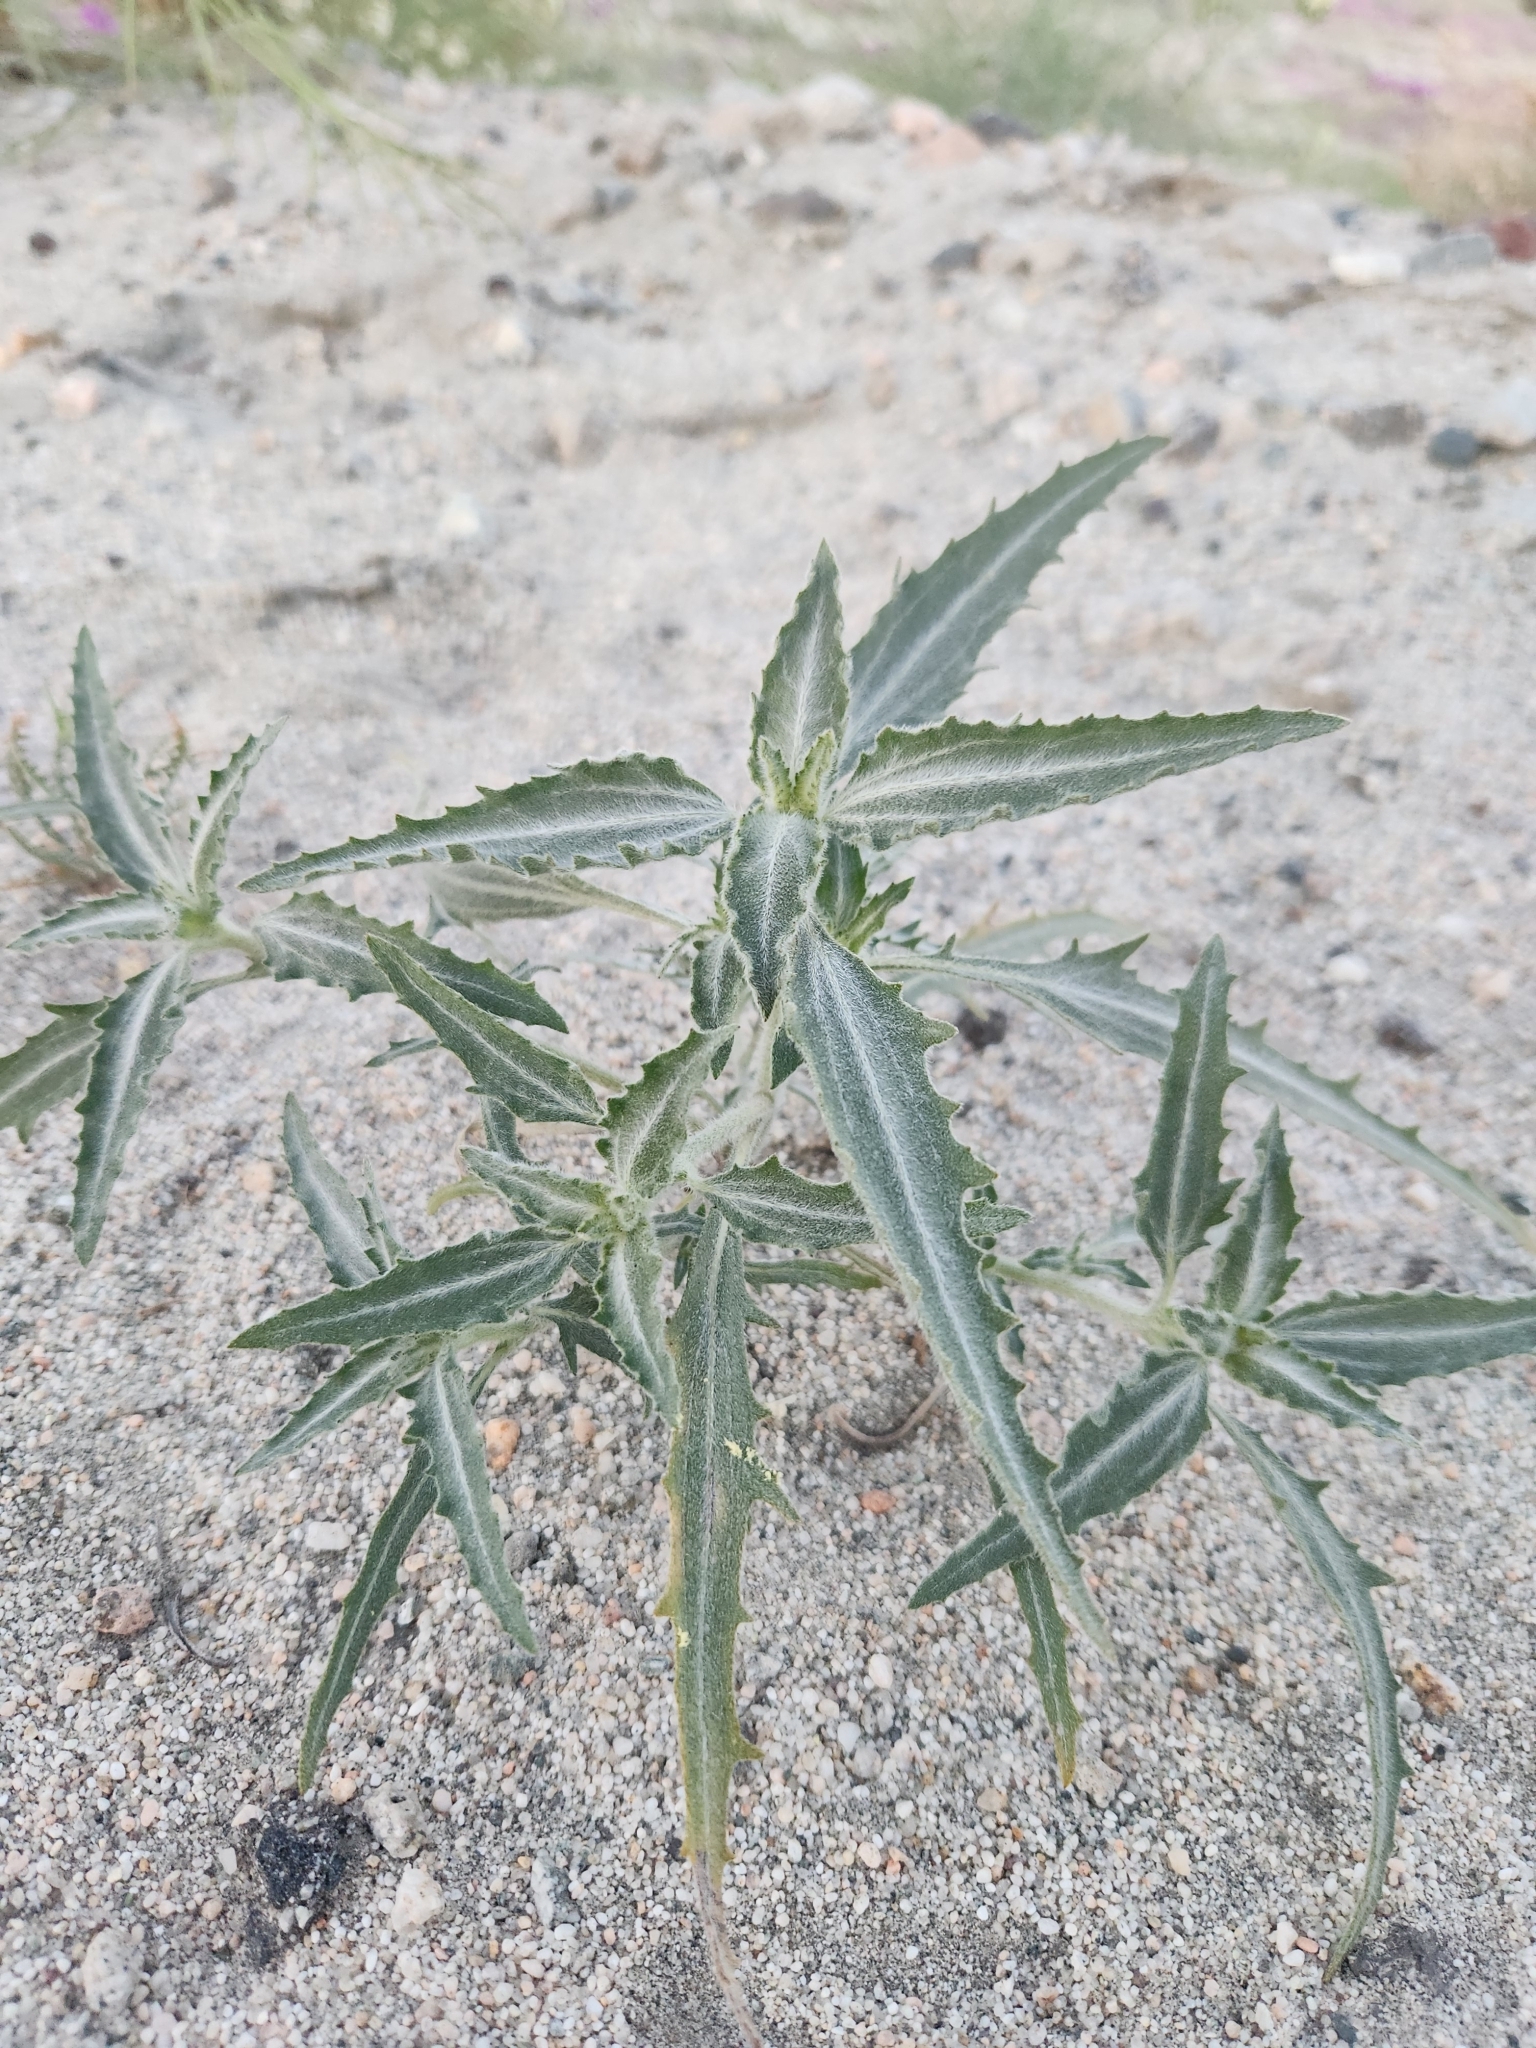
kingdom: Plantae
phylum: Tracheophyta
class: Magnoliopsida
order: Asterales
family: Asteraceae
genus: Dicoria
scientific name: Dicoria canescens
